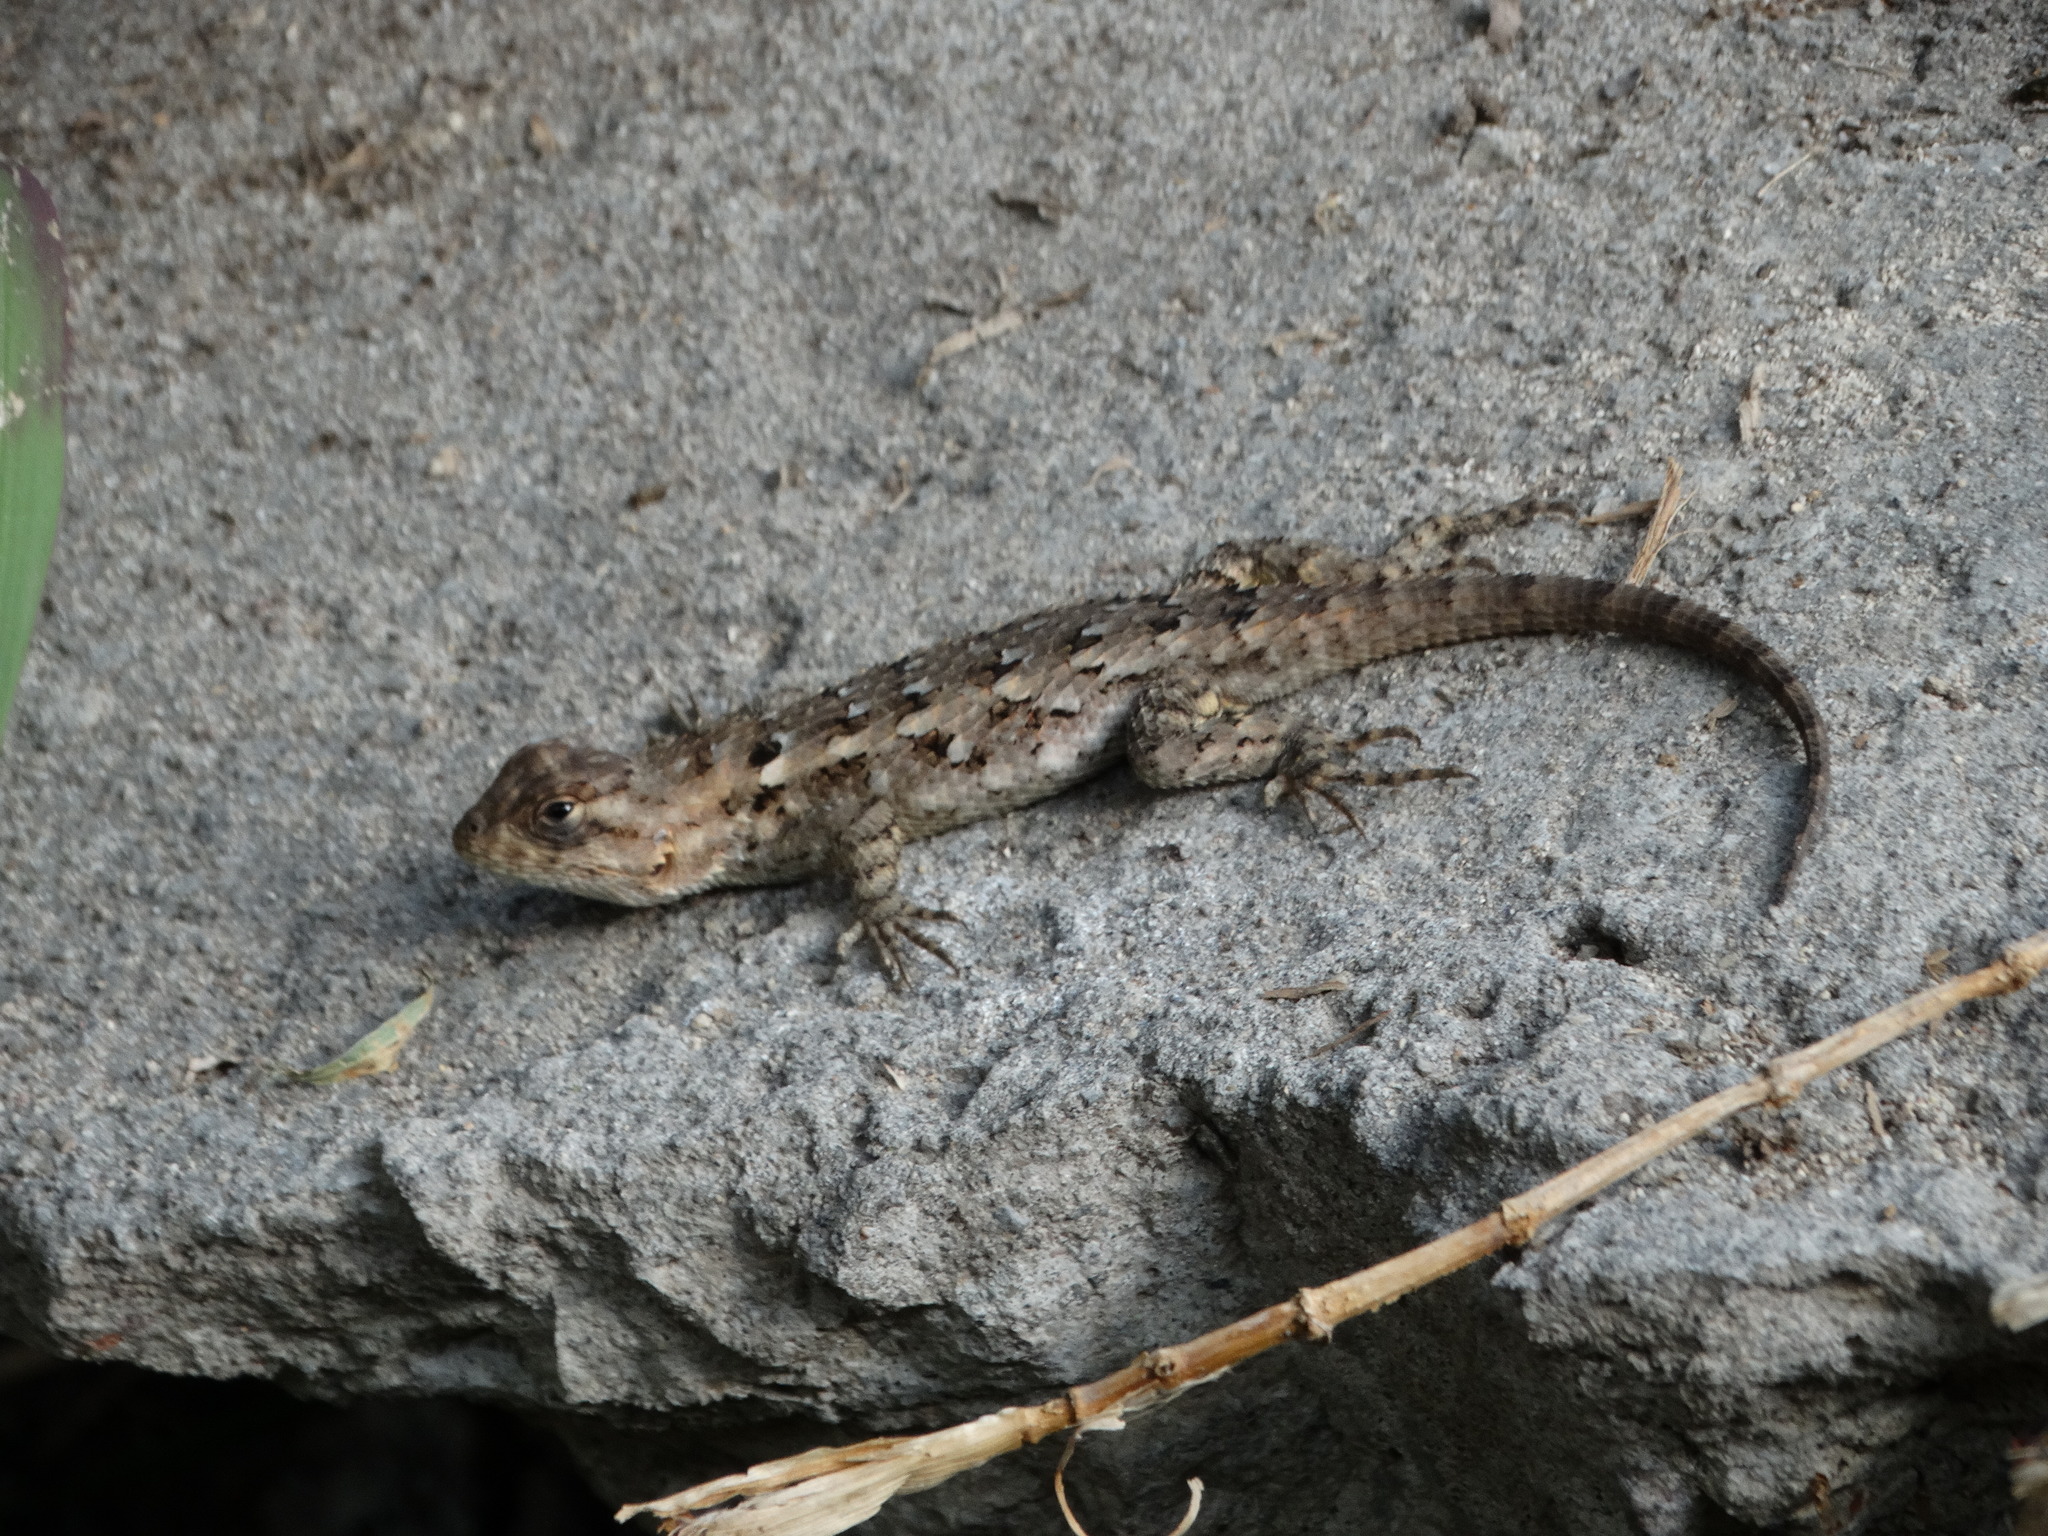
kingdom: Animalia
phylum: Chordata
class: Squamata
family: Phrynosomatidae
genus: Sceloporus
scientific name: Sceloporus spinosus
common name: Blue-spotted spiny lizard [caeruleopunctatus]
